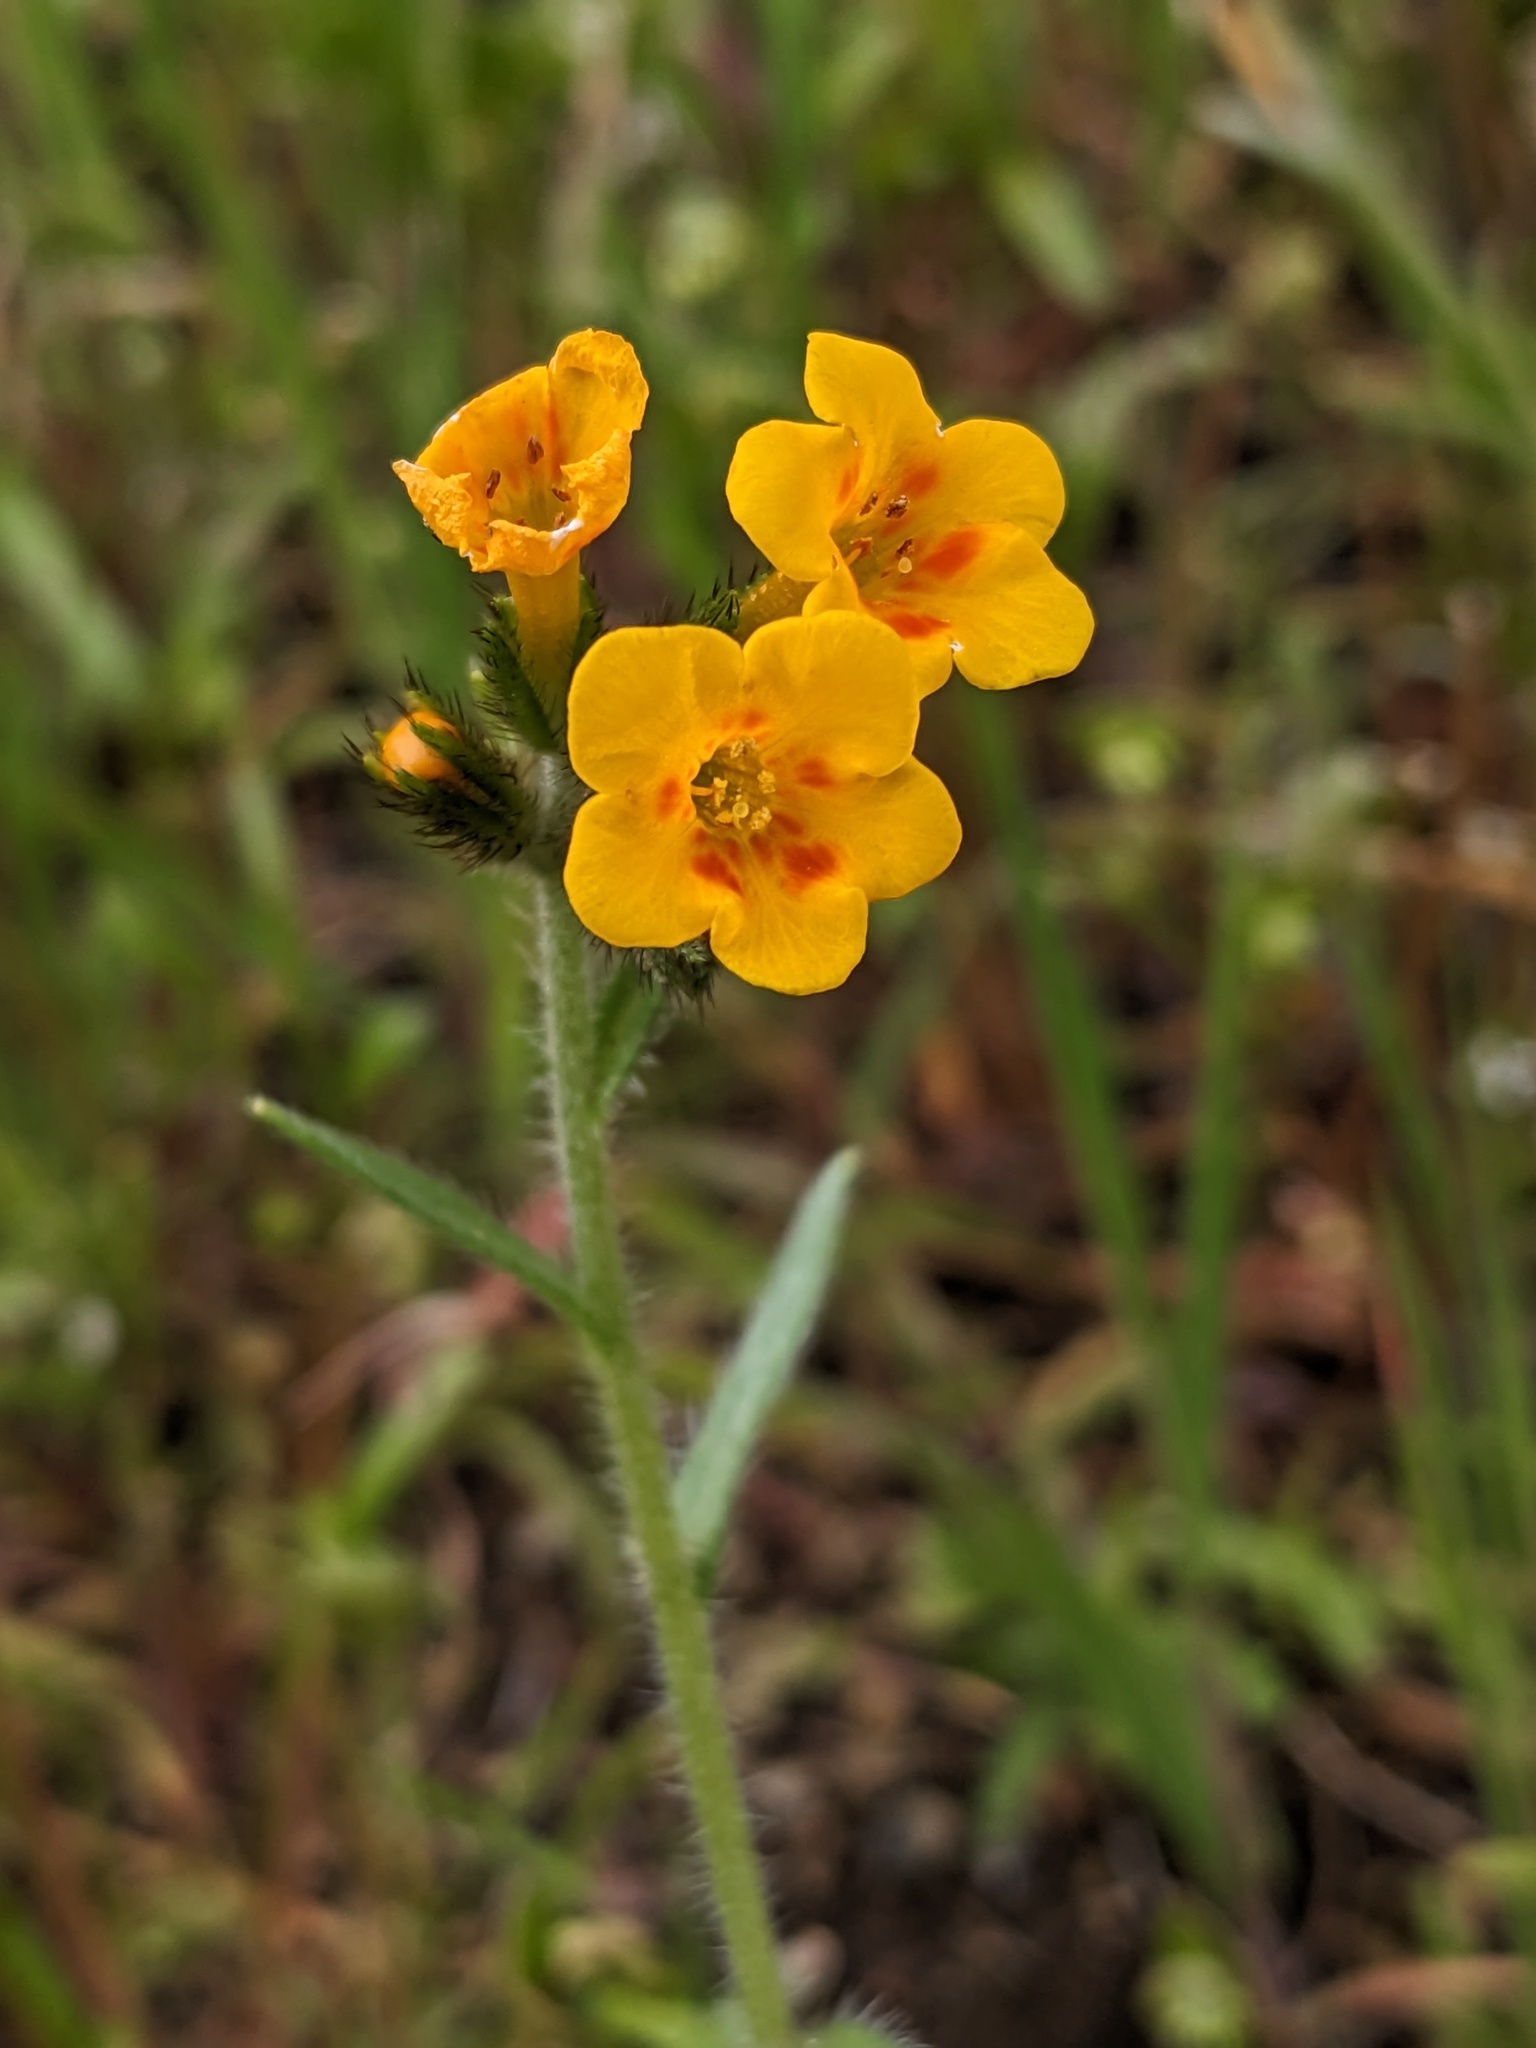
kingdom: Plantae
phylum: Tracheophyta
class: Magnoliopsida
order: Boraginales
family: Boraginaceae
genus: Amsinckia
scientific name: Amsinckia eastwoodiae
